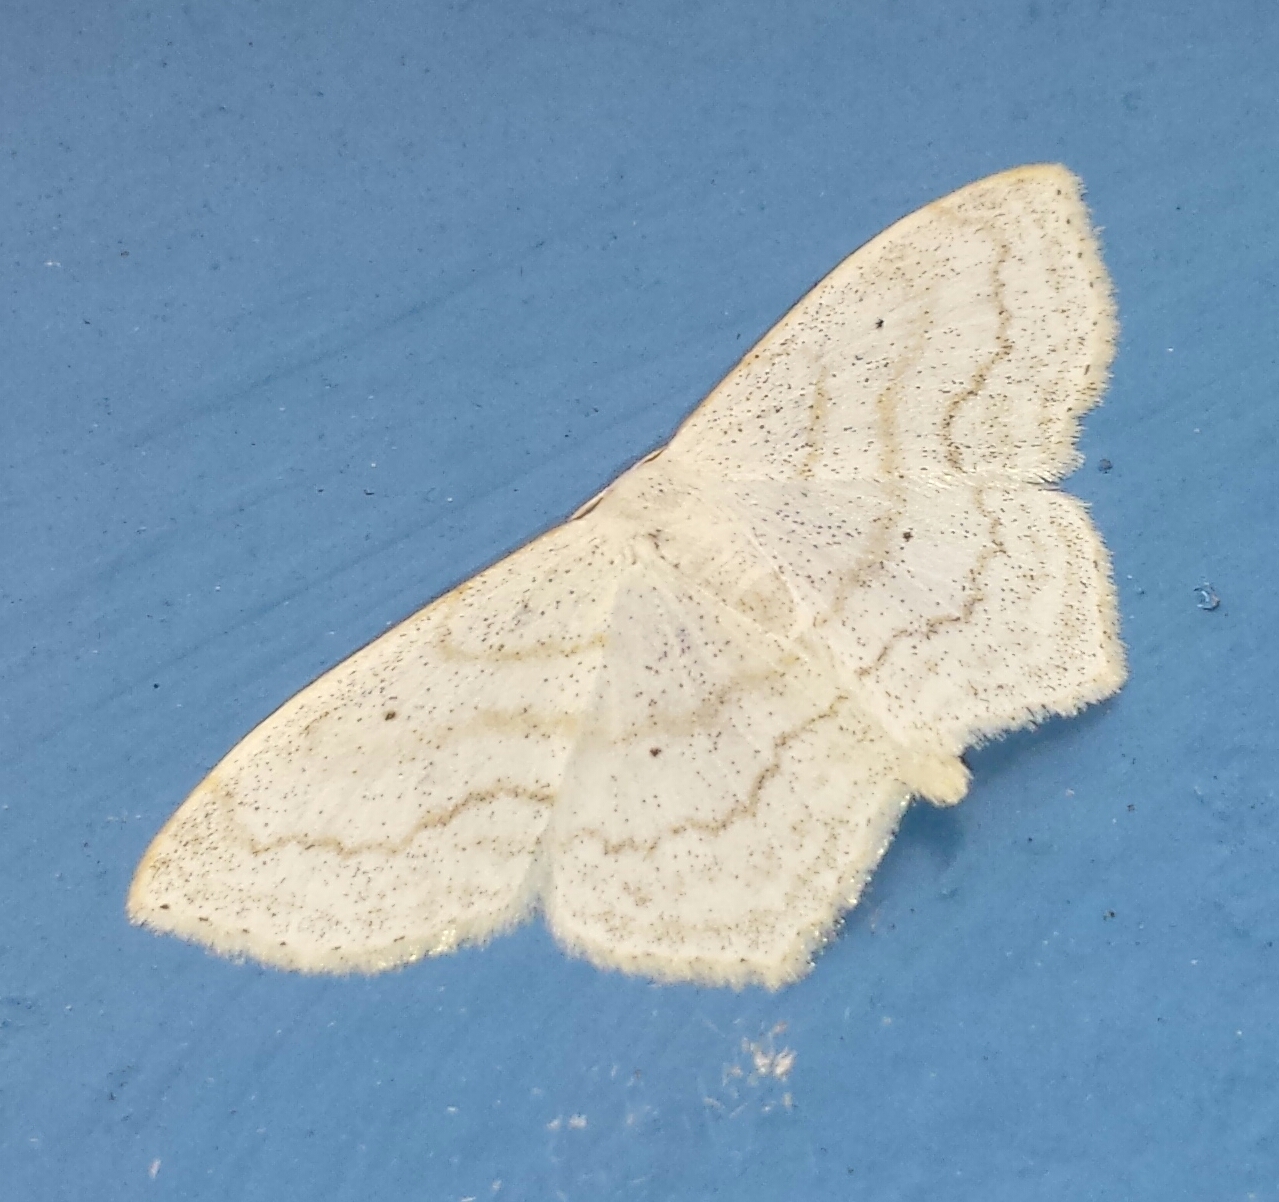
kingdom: Animalia
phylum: Arthropoda
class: Insecta
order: Lepidoptera
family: Geometridae
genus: Scopula
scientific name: Scopula limboundata
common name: Large lace border
